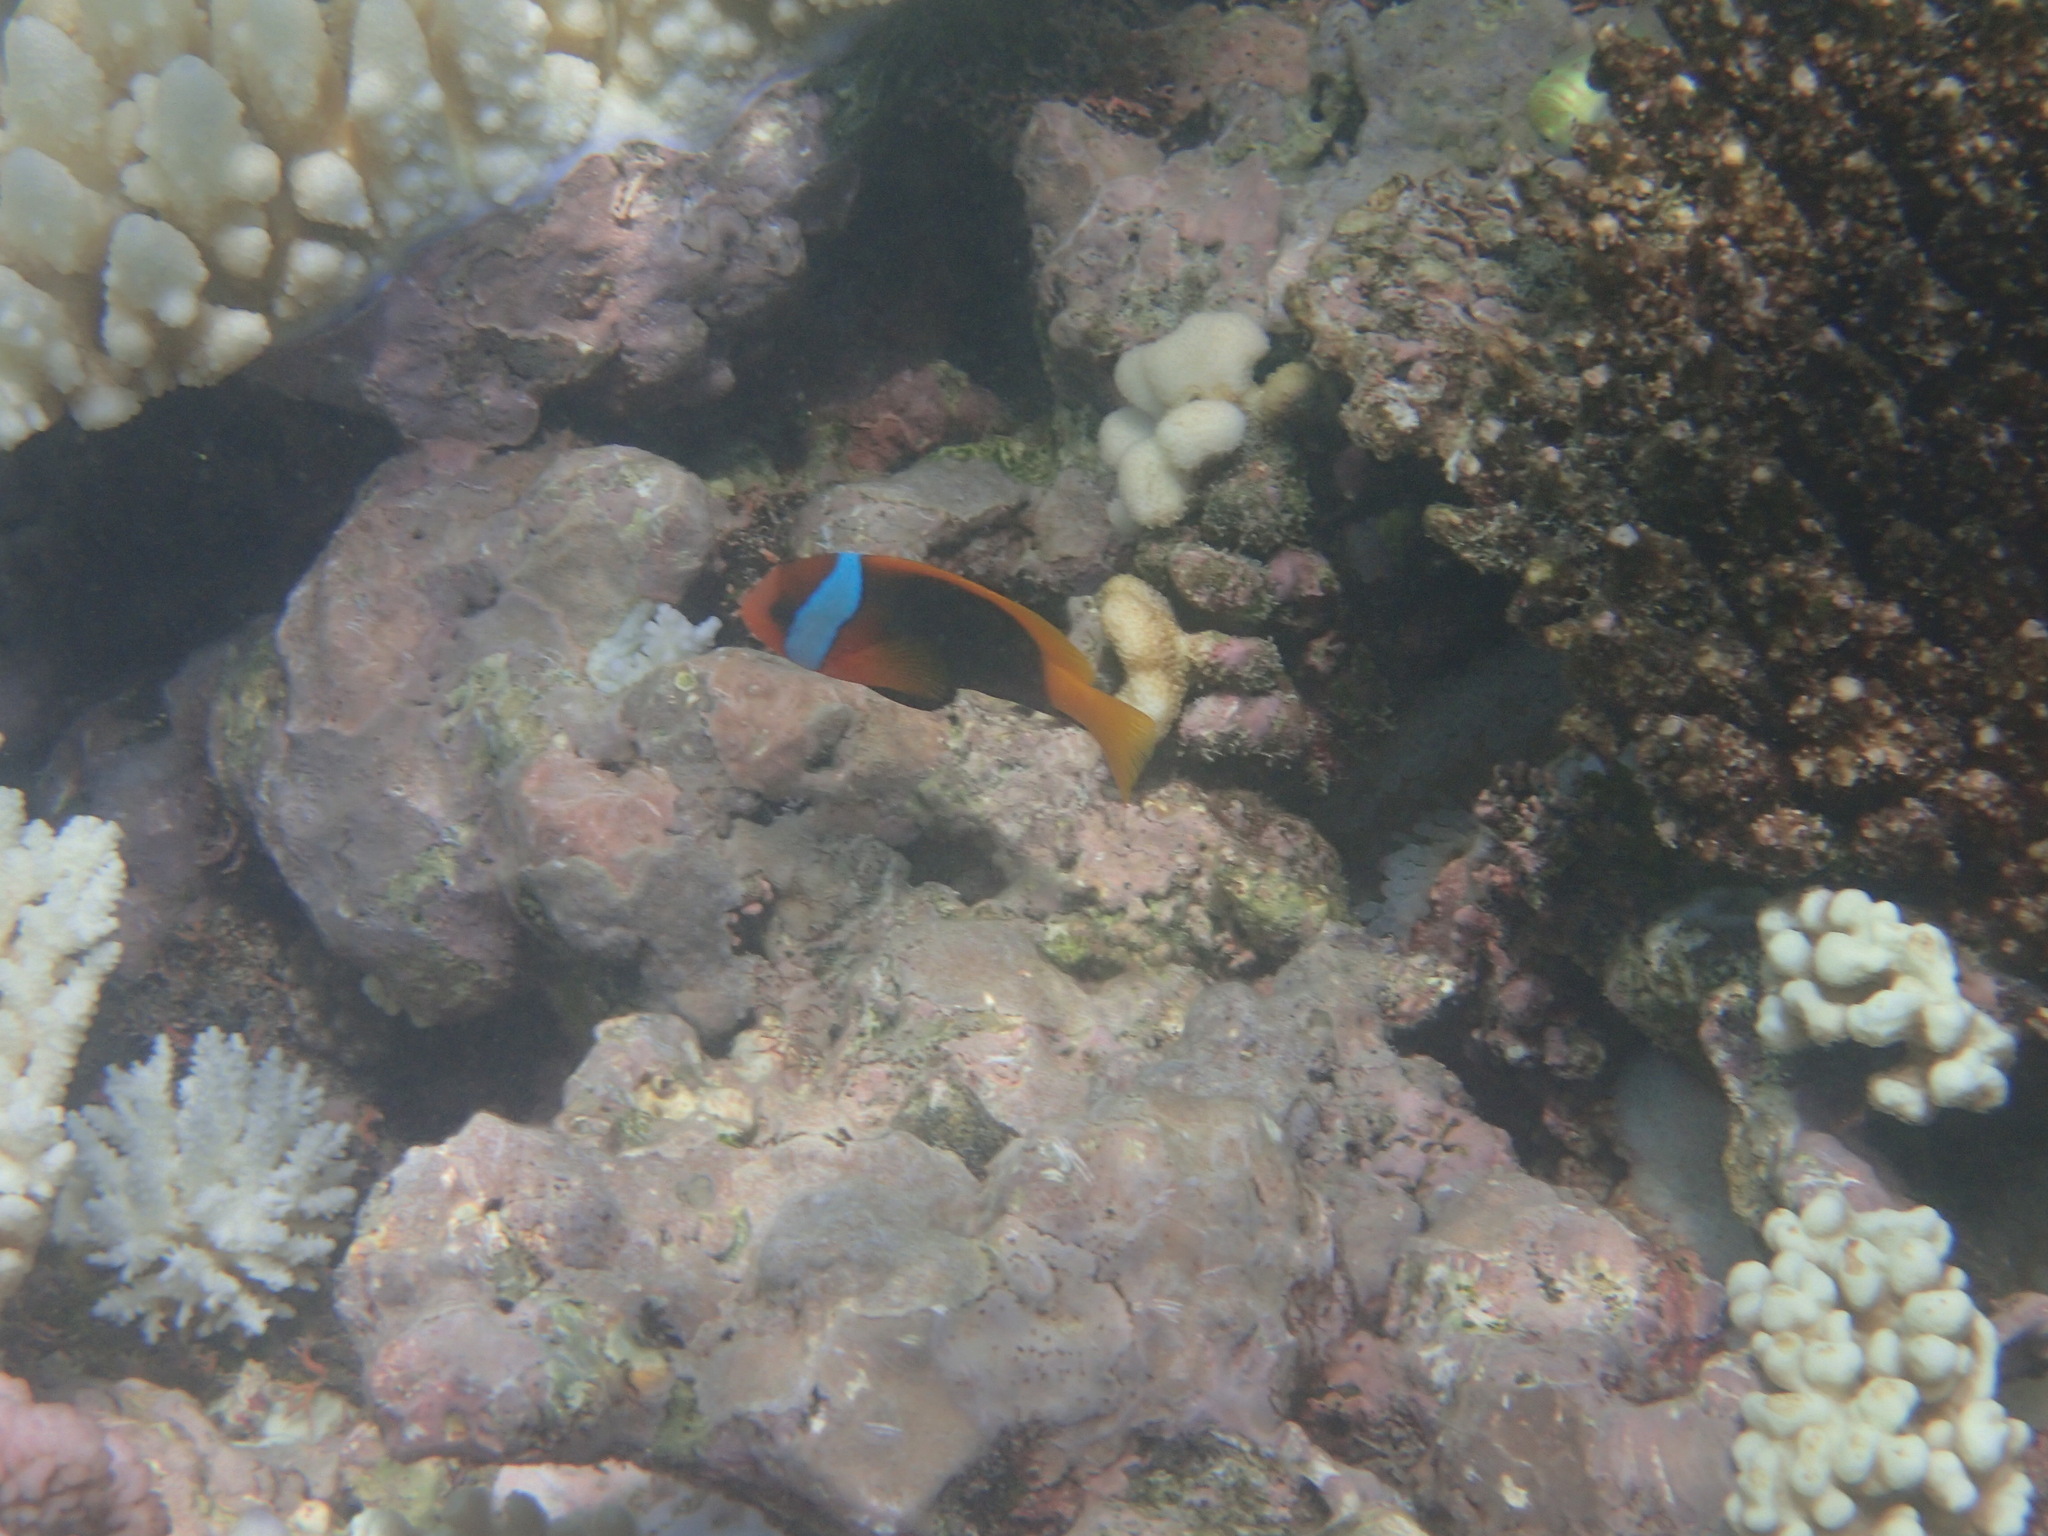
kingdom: Animalia
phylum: Chordata
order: Perciformes
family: Pomacentridae
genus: Amphiprion
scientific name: Amphiprion melanopus
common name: Black anemonefish
